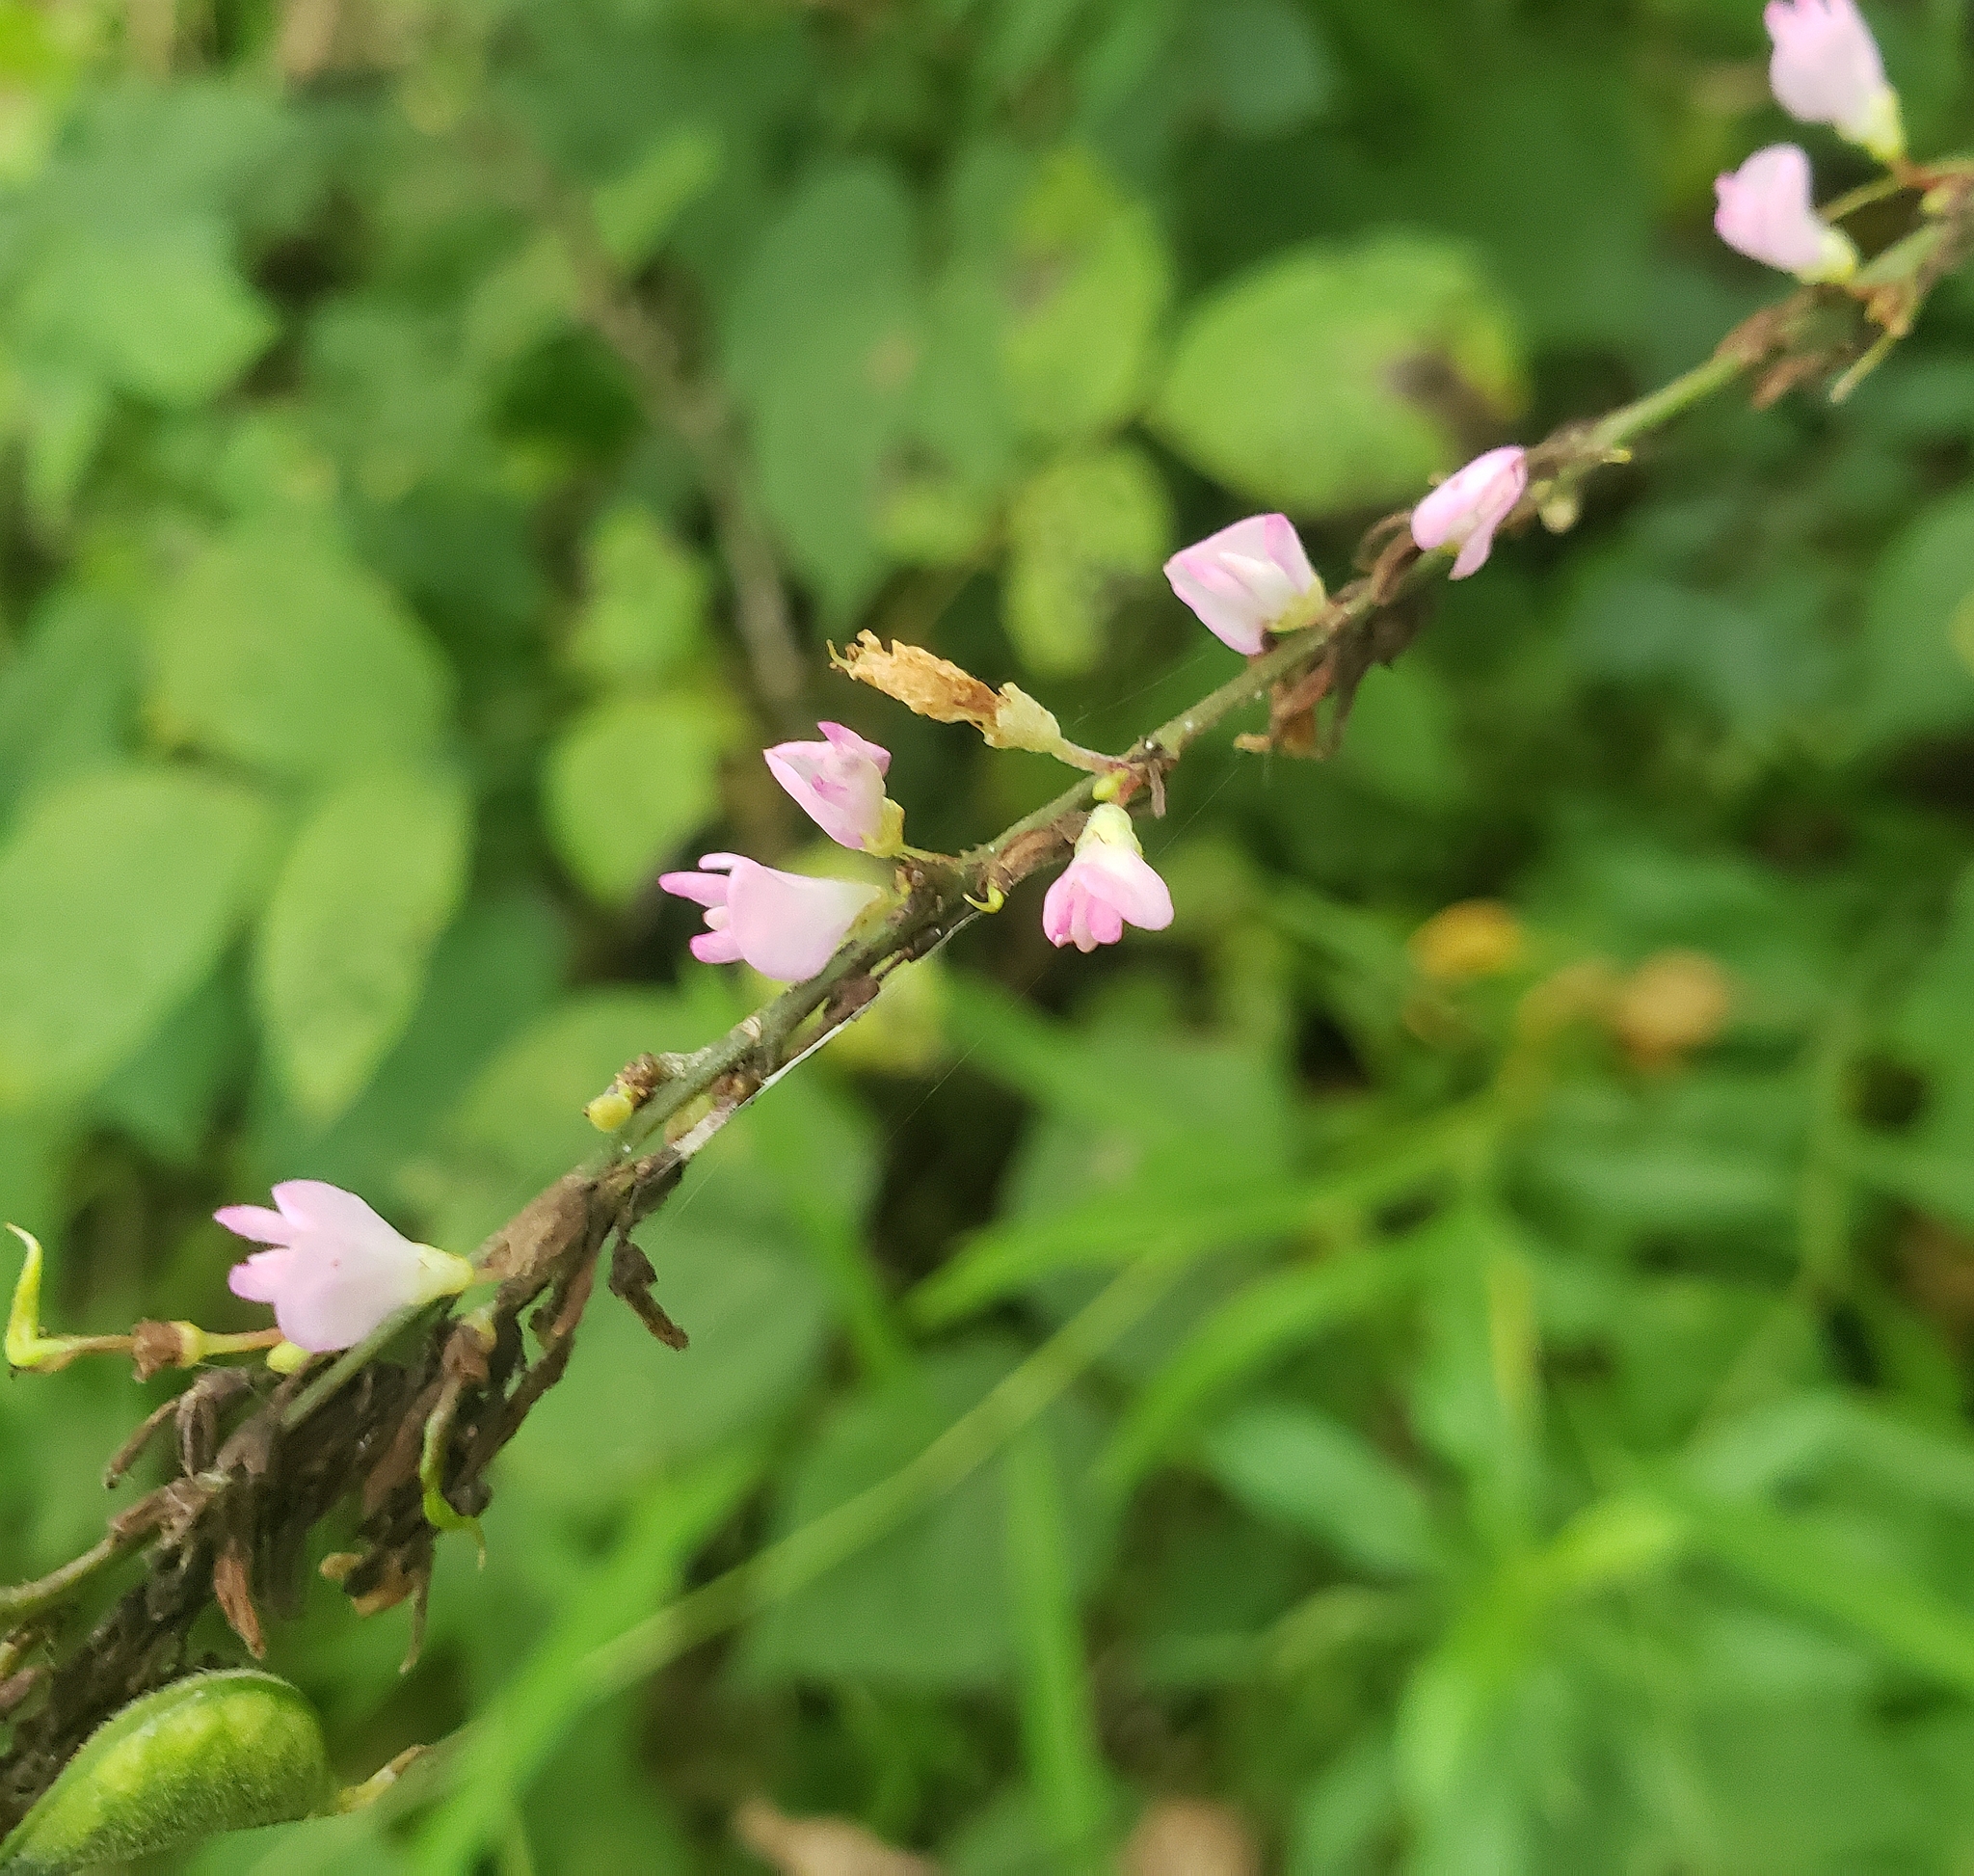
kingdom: Plantae
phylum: Tracheophyta
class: Magnoliopsida
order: Fabales
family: Fabaceae
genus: Hylodesmum
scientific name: Hylodesmum glutinosum
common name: Clustered-leaved tick-trefoil
